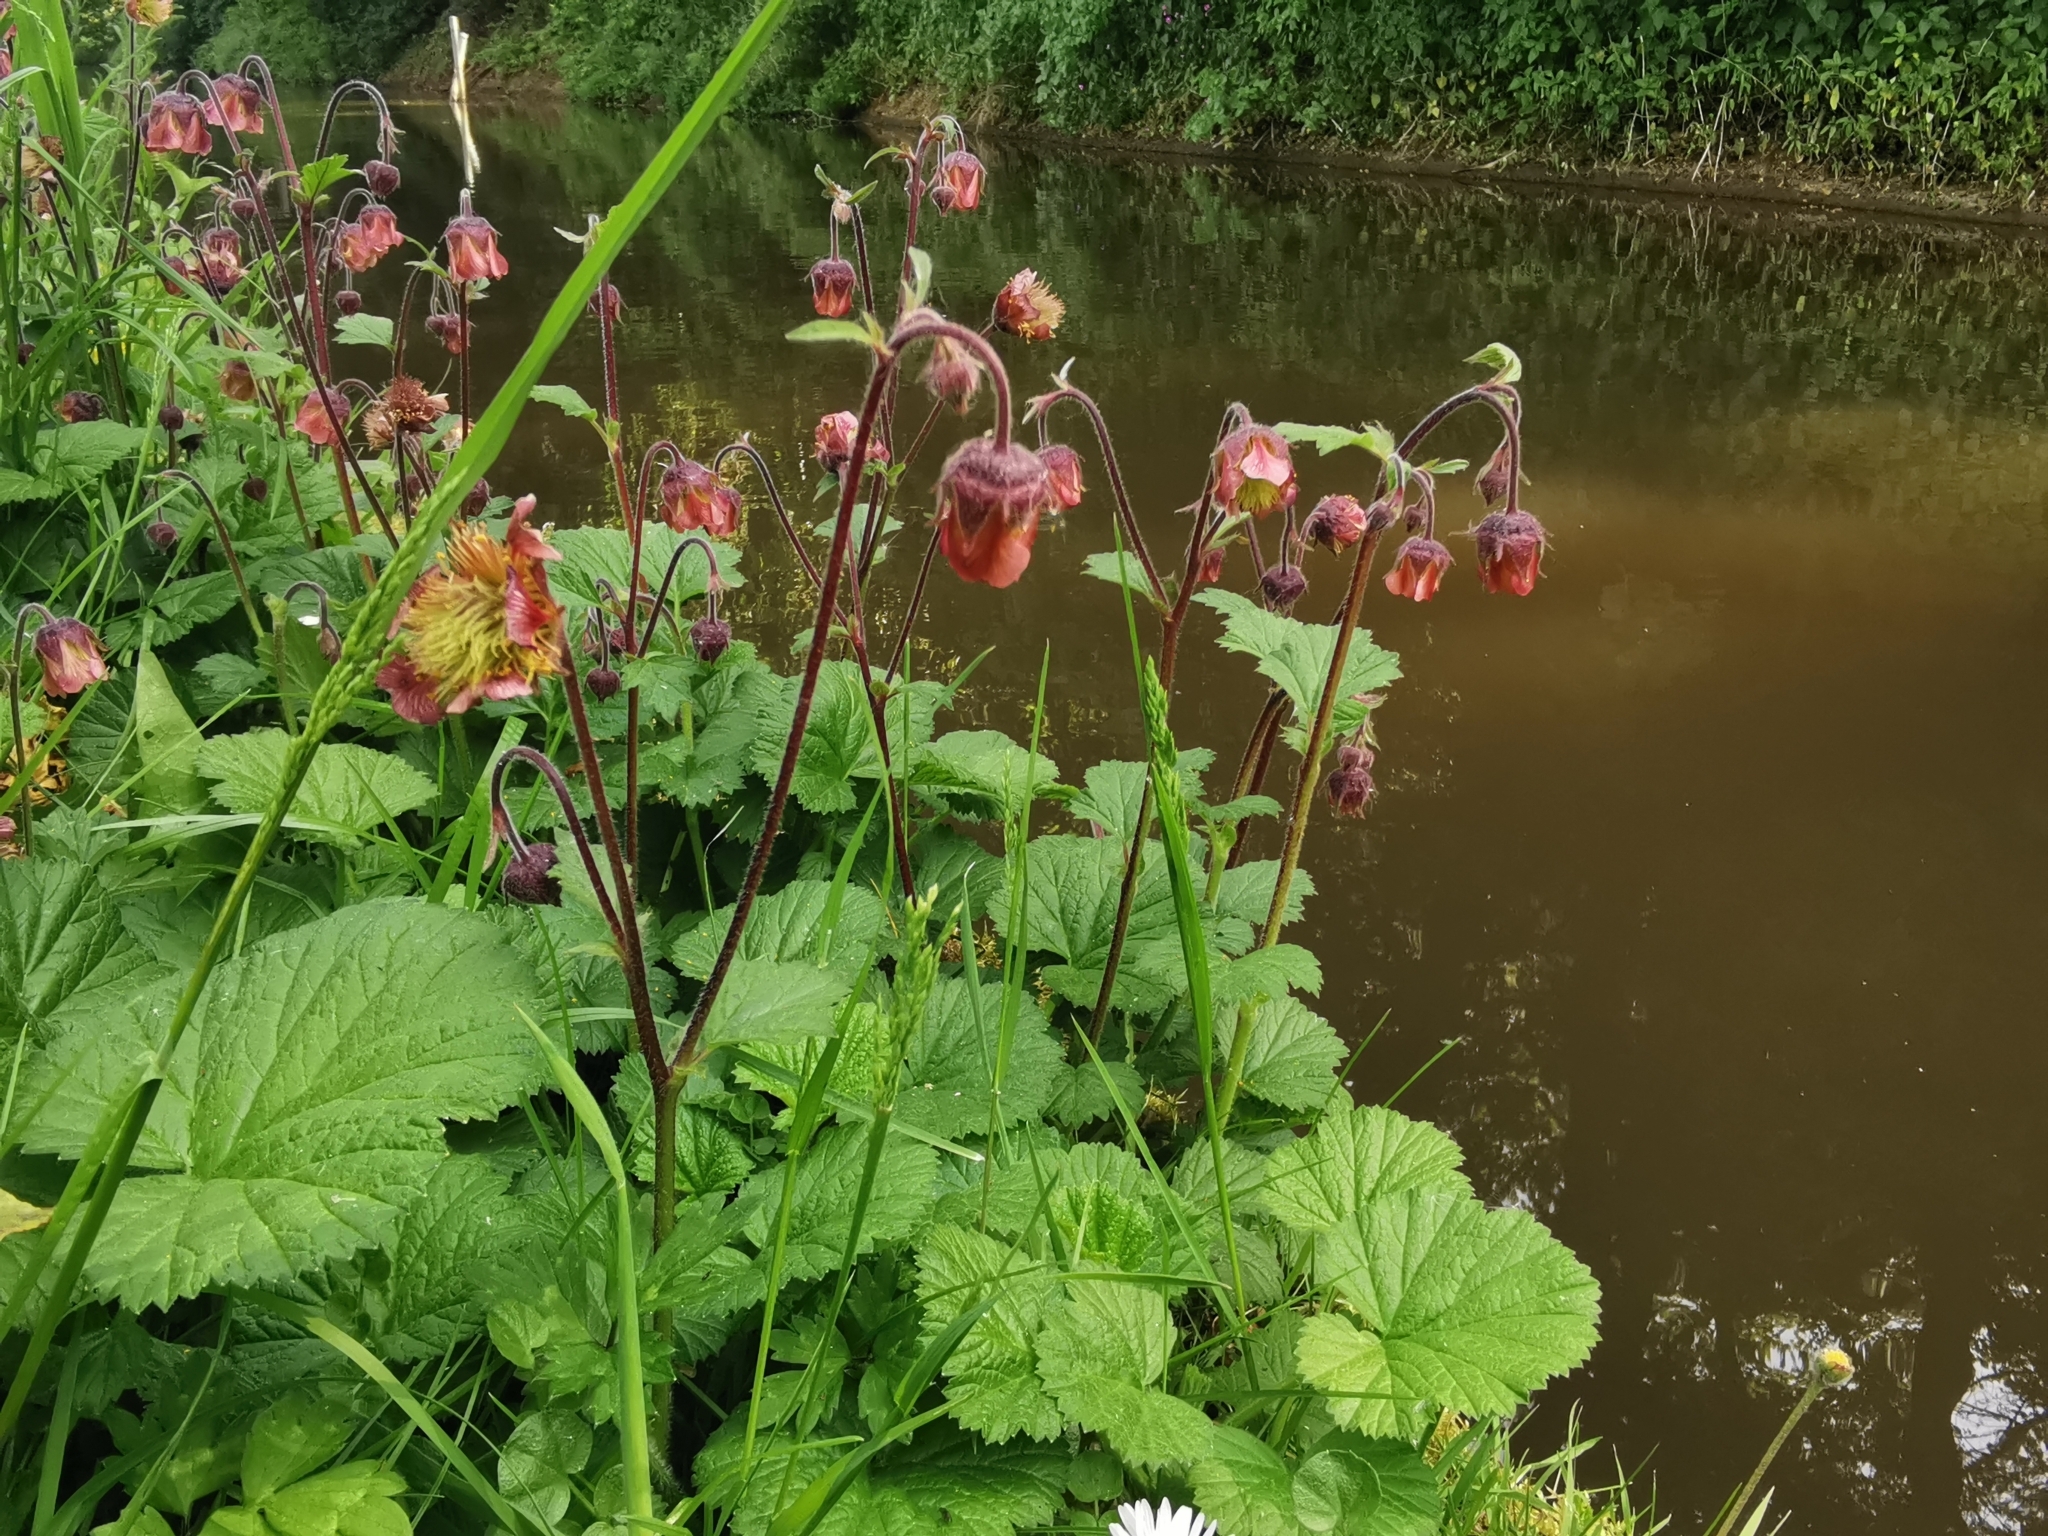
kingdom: Plantae
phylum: Tracheophyta
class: Magnoliopsida
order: Rosales
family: Rosaceae
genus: Geum
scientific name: Geum rivale
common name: Water avens
